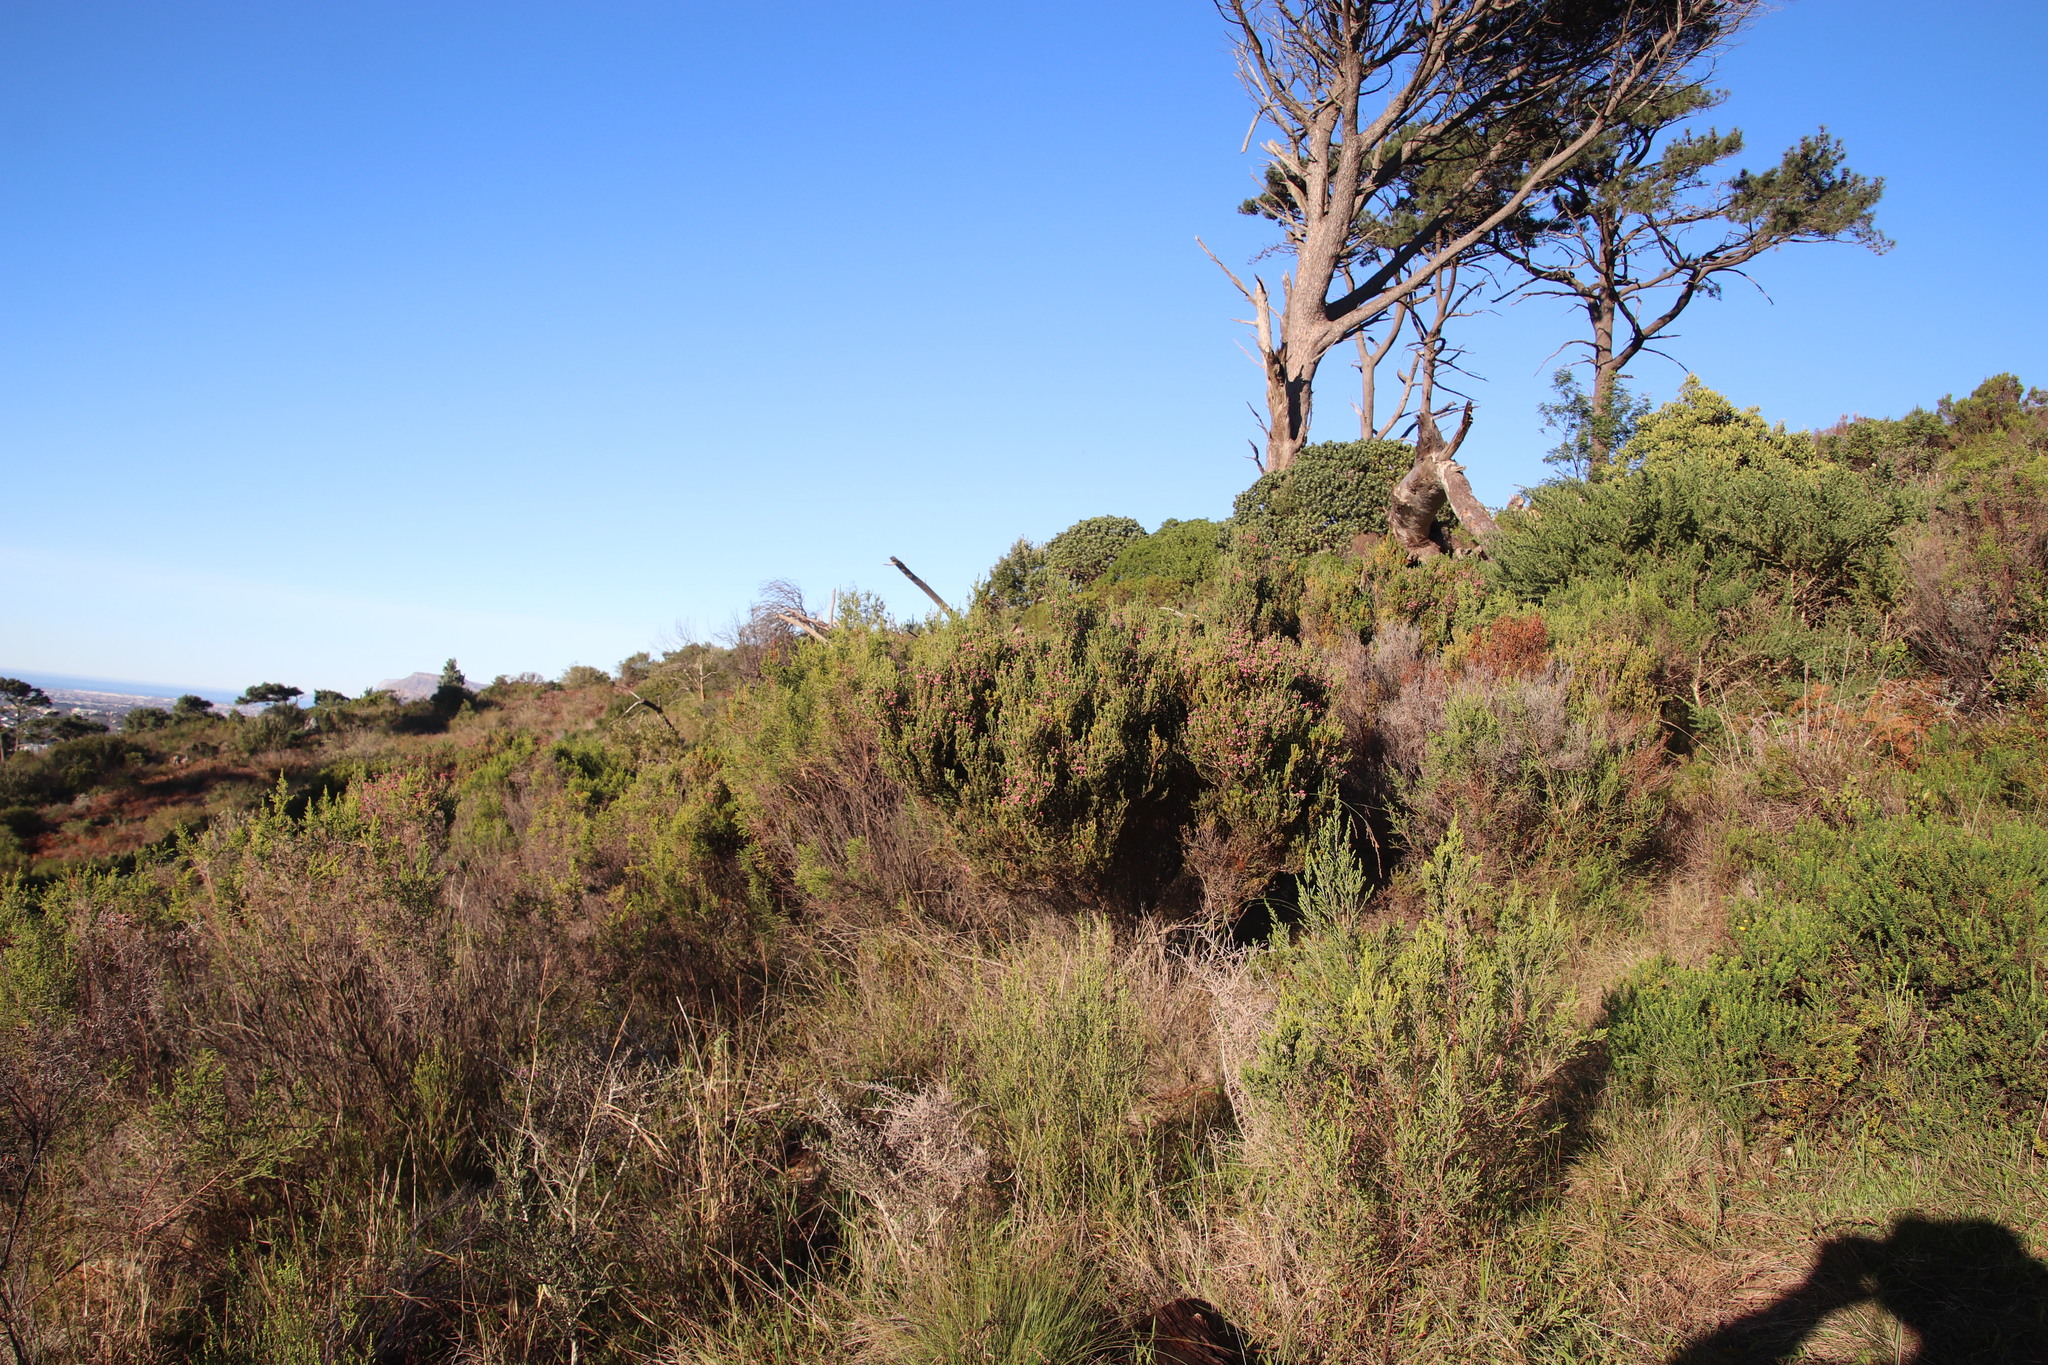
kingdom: Plantae
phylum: Tracheophyta
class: Magnoliopsida
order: Ericales
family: Ericaceae
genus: Erica
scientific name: Erica baccans
